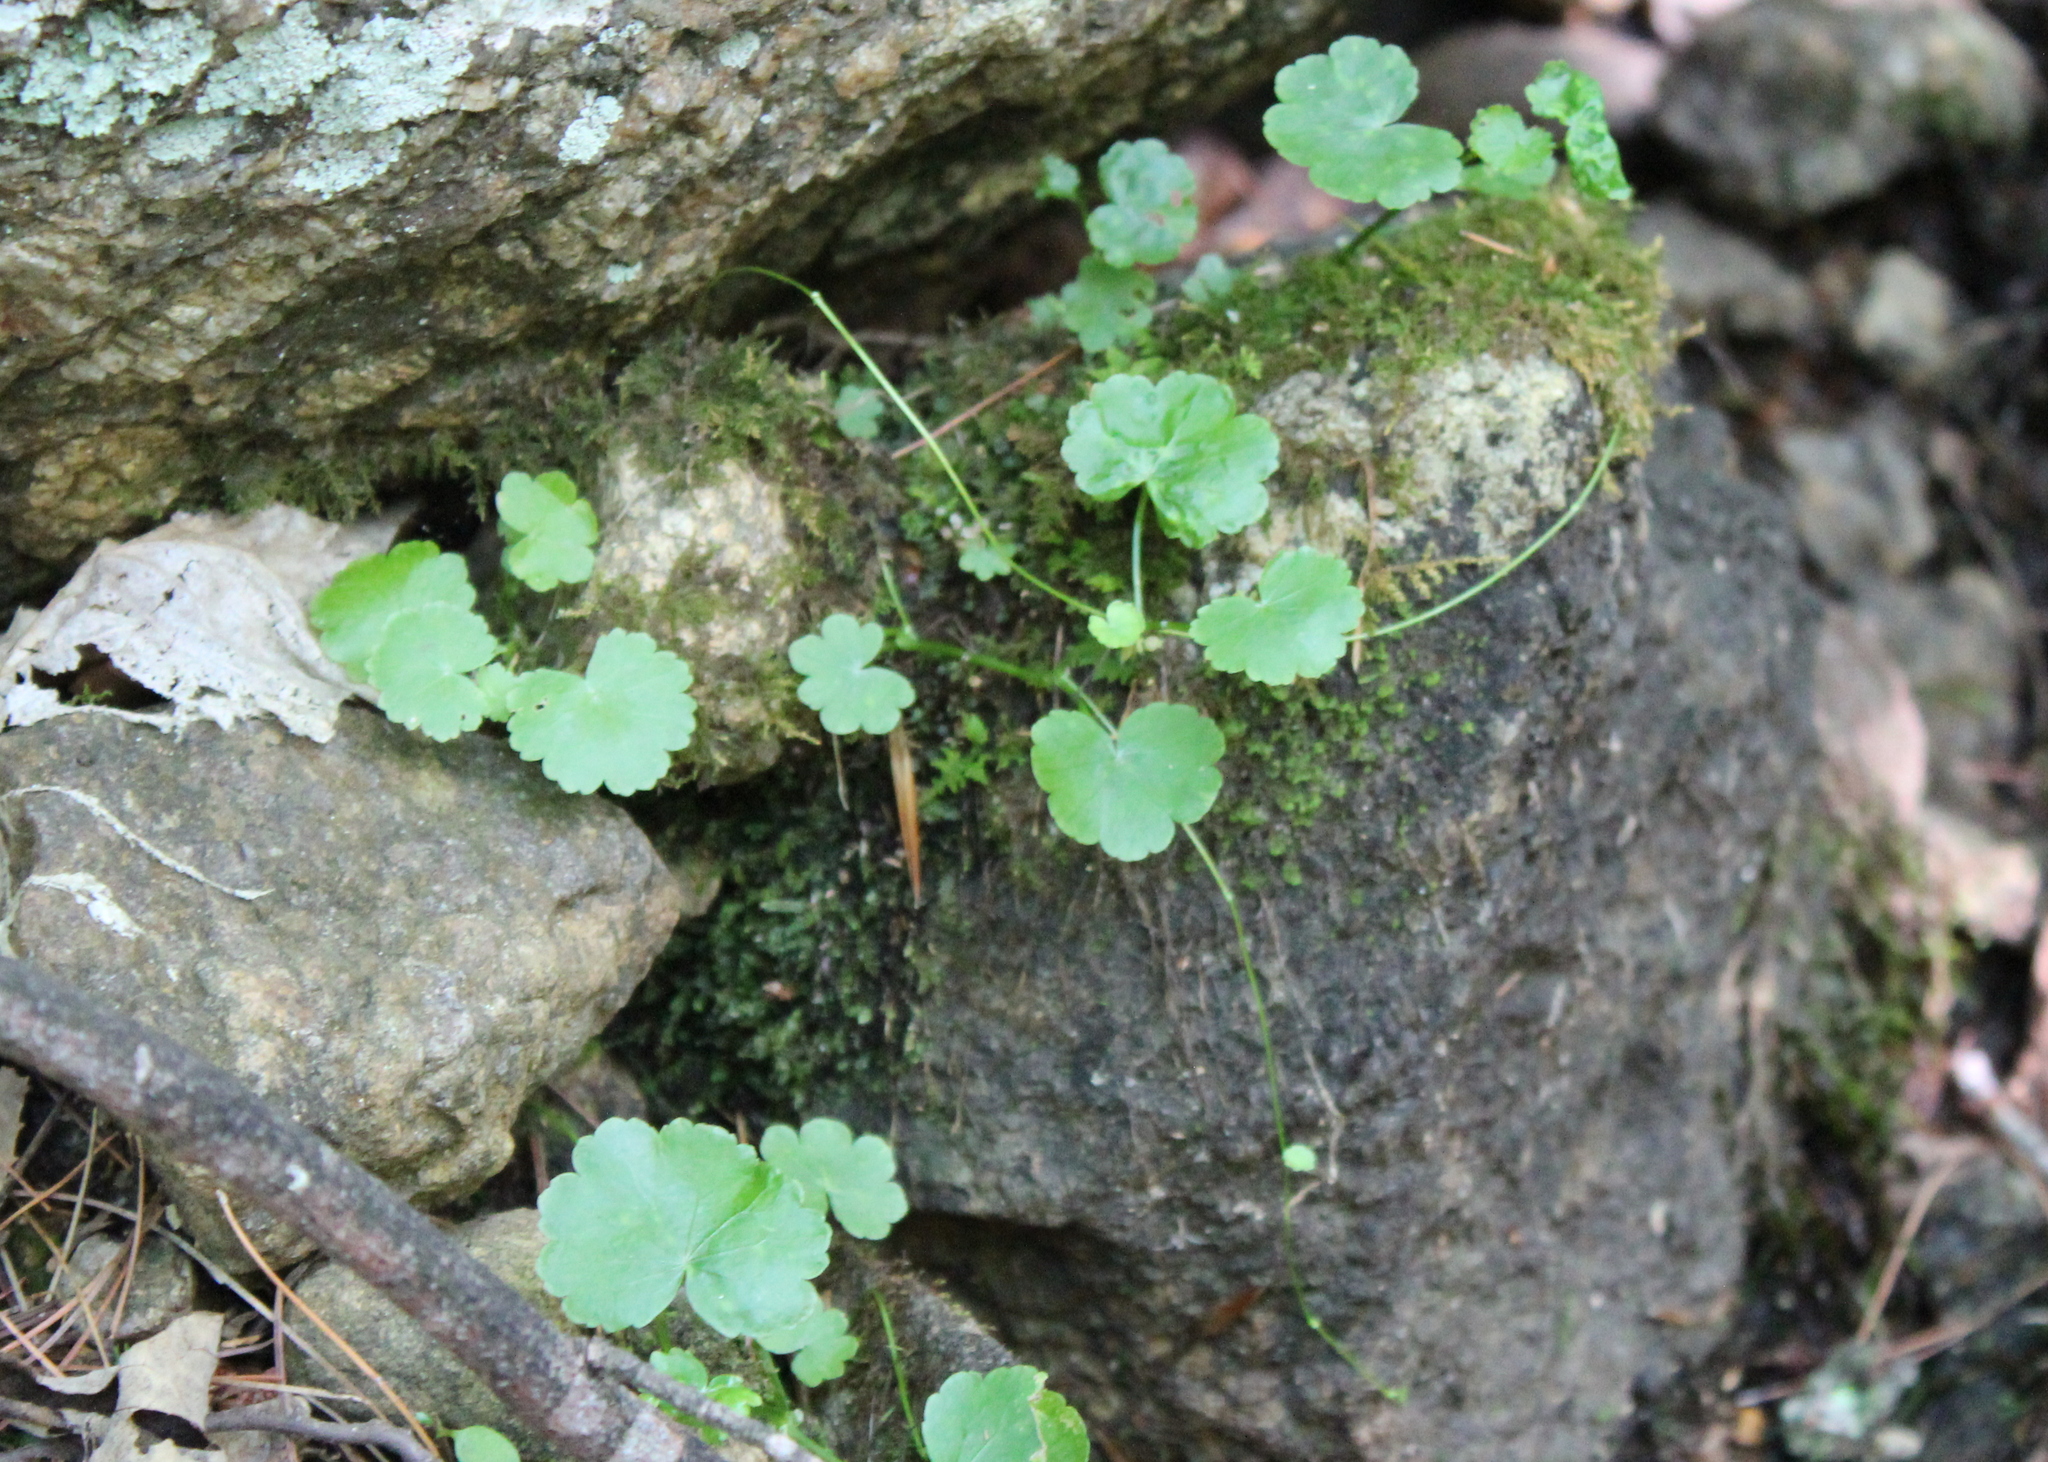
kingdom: Plantae
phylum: Tracheophyta
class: Magnoliopsida
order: Apiales
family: Araliaceae
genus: Hydrocotyle
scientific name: Hydrocotyle americana
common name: American water-pennywort
